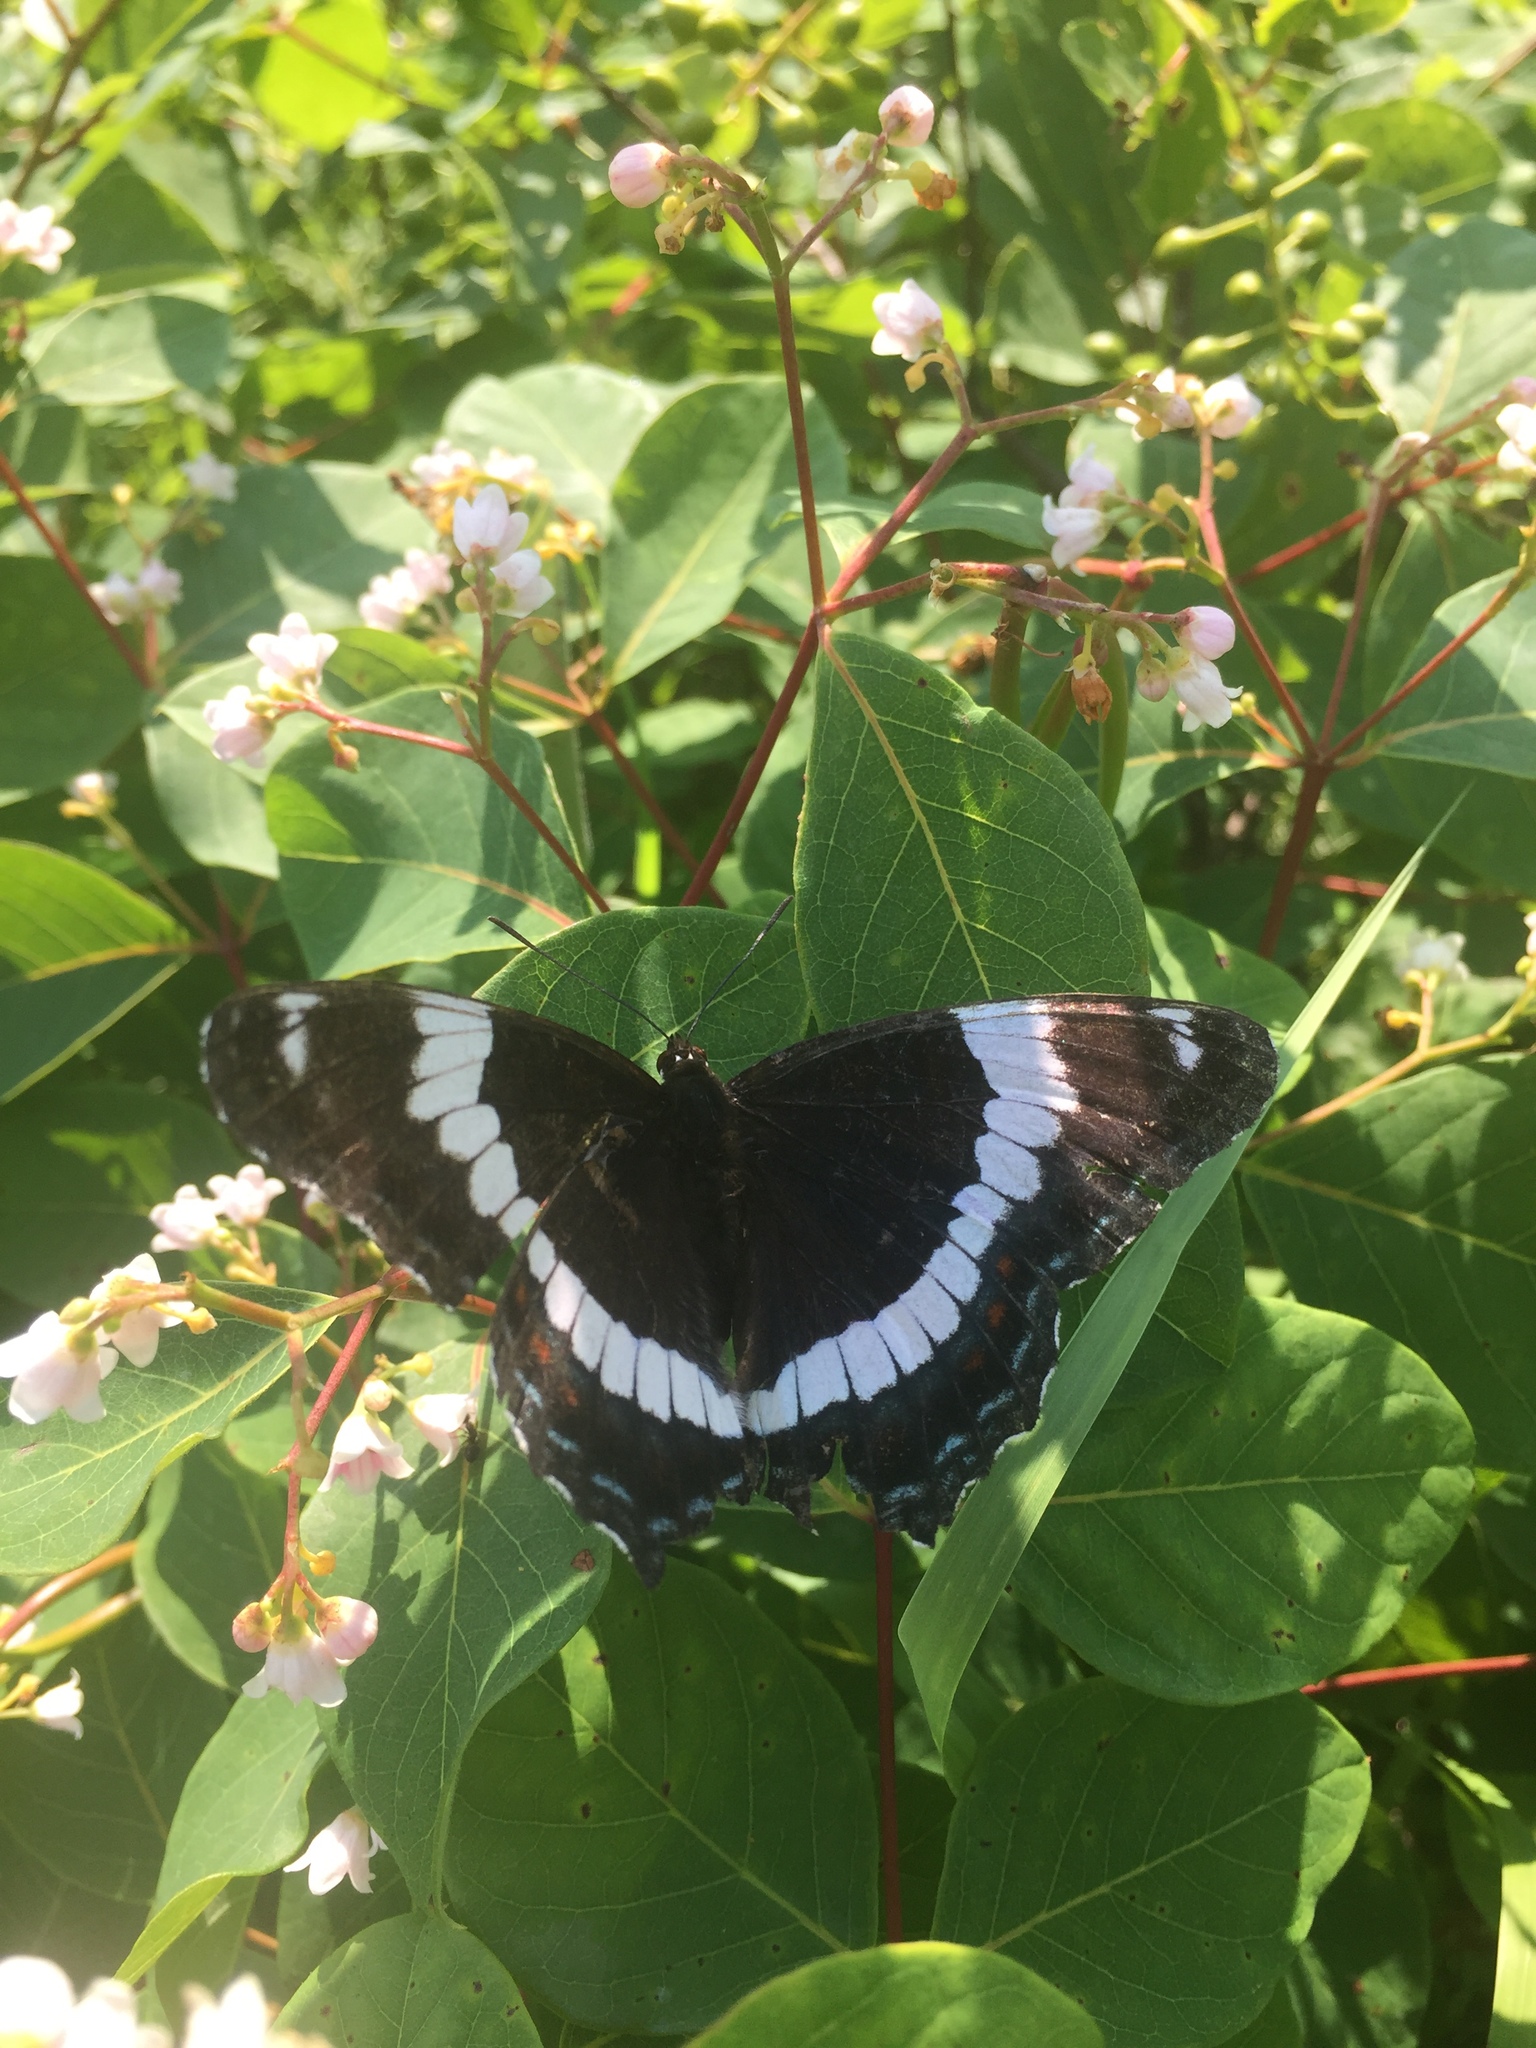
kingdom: Animalia
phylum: Arthropoda
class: Insecta
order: Lepidoptera
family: Nymphalidae
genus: Limenitis
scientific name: Limenitis arthemis
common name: Red-spotted admiral
